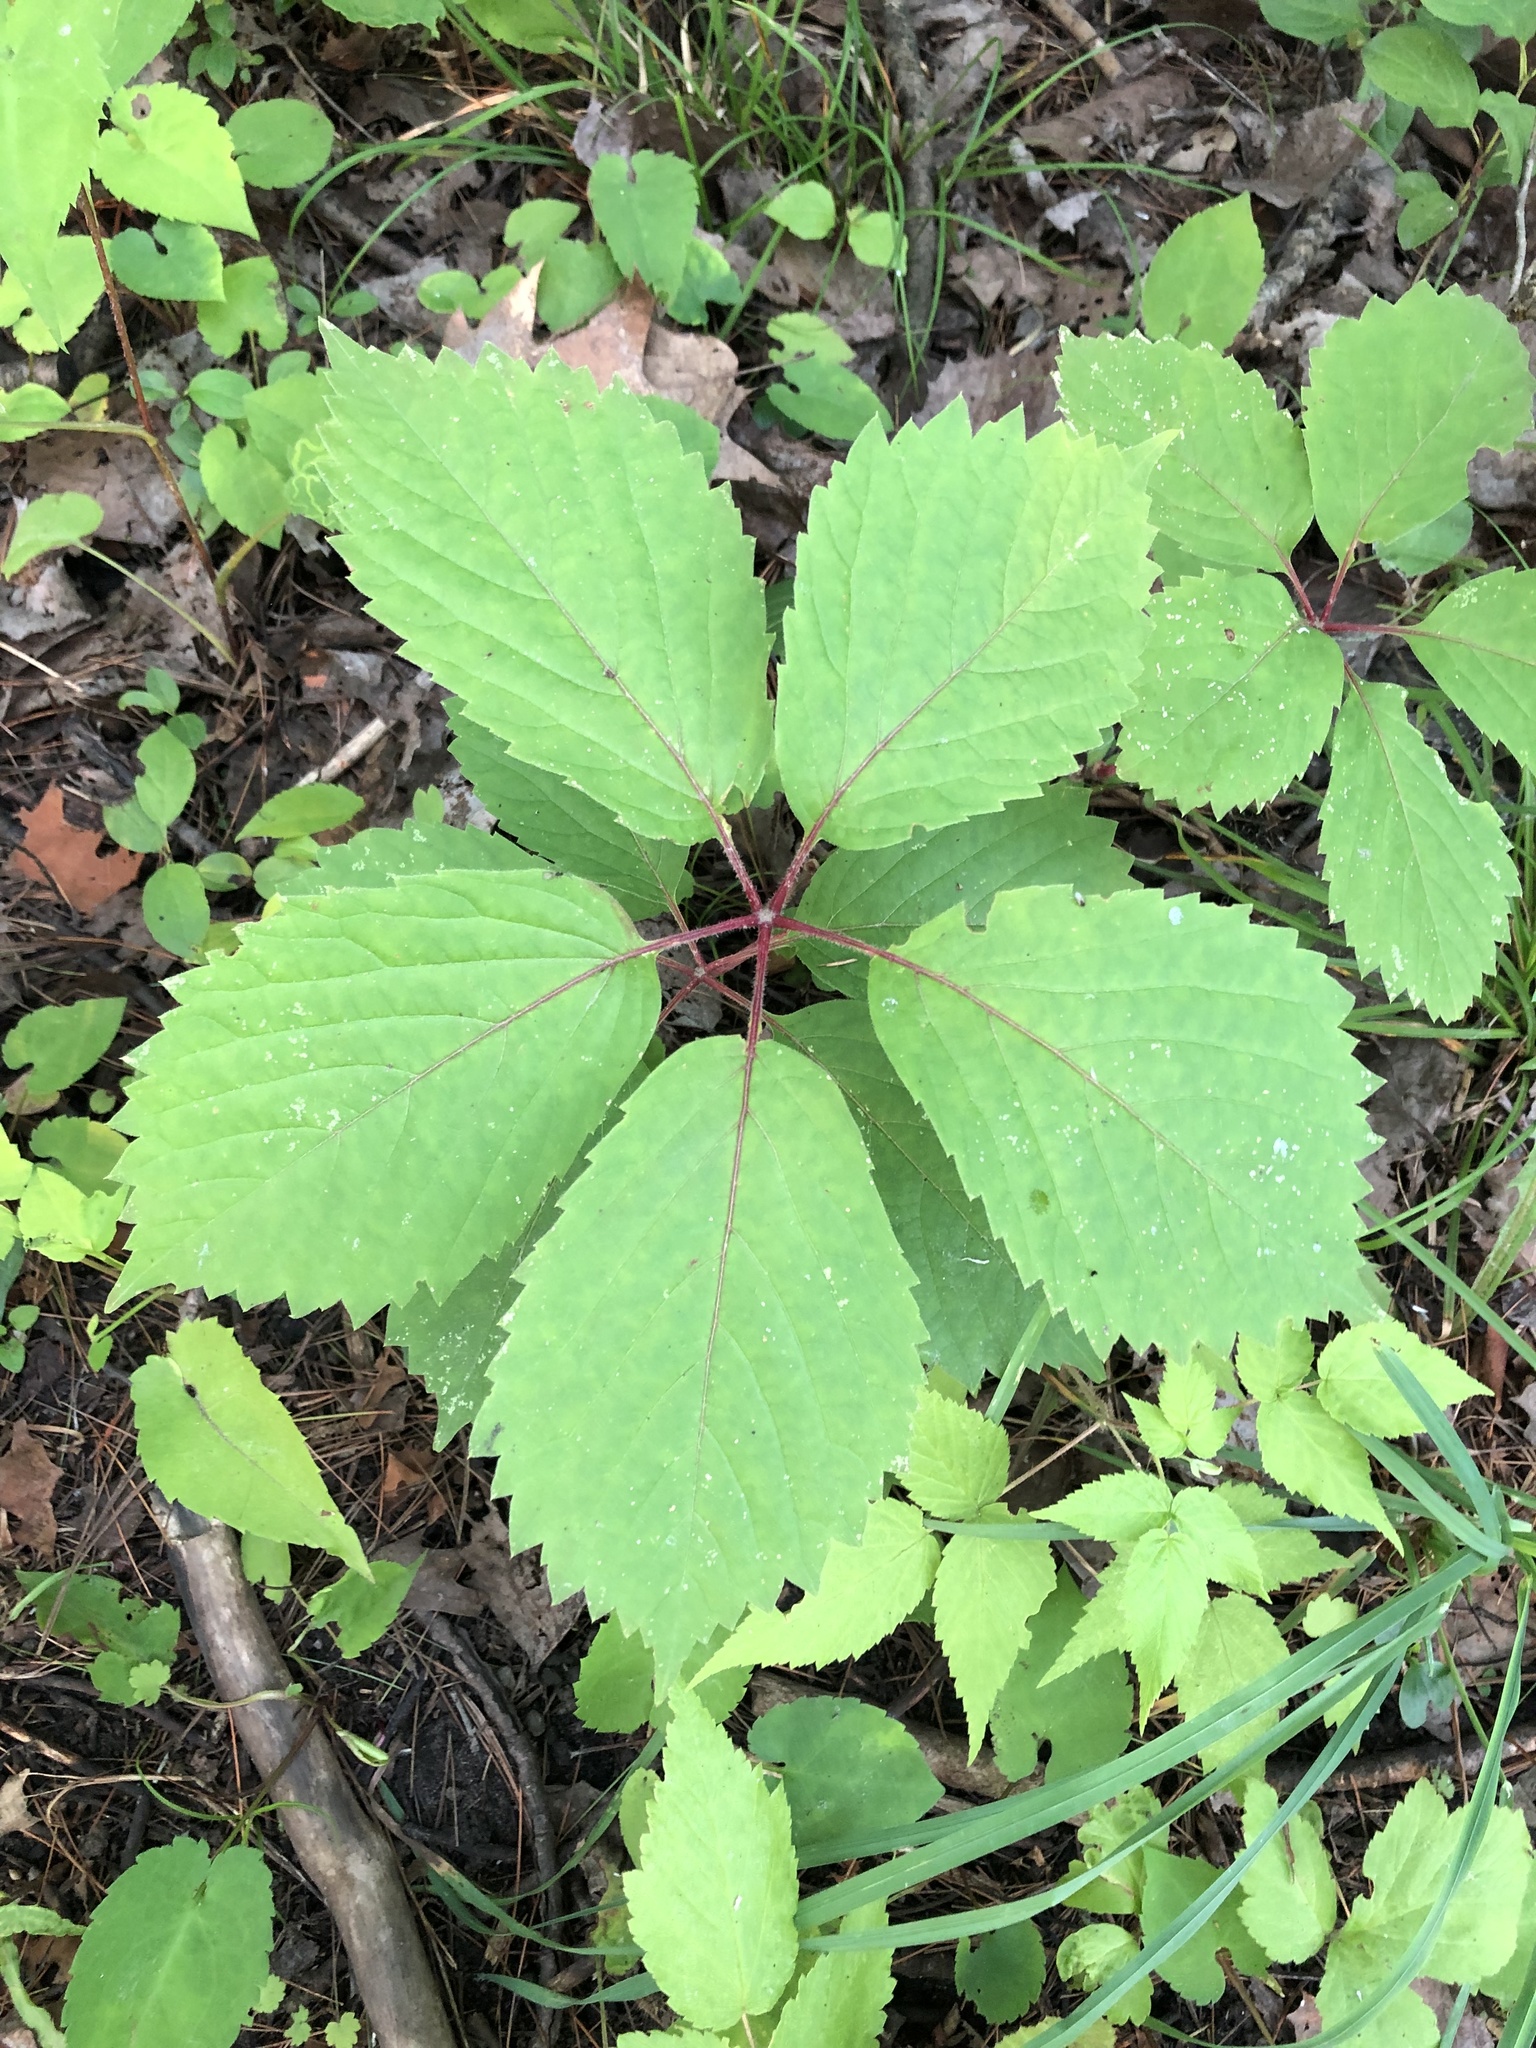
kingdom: Plantae
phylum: Tracheophyta
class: Magnoliopsida
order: Vitales
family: Vitaceae
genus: Parthenocissus
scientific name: Parthenocissus inserta
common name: False virginia-creeper
